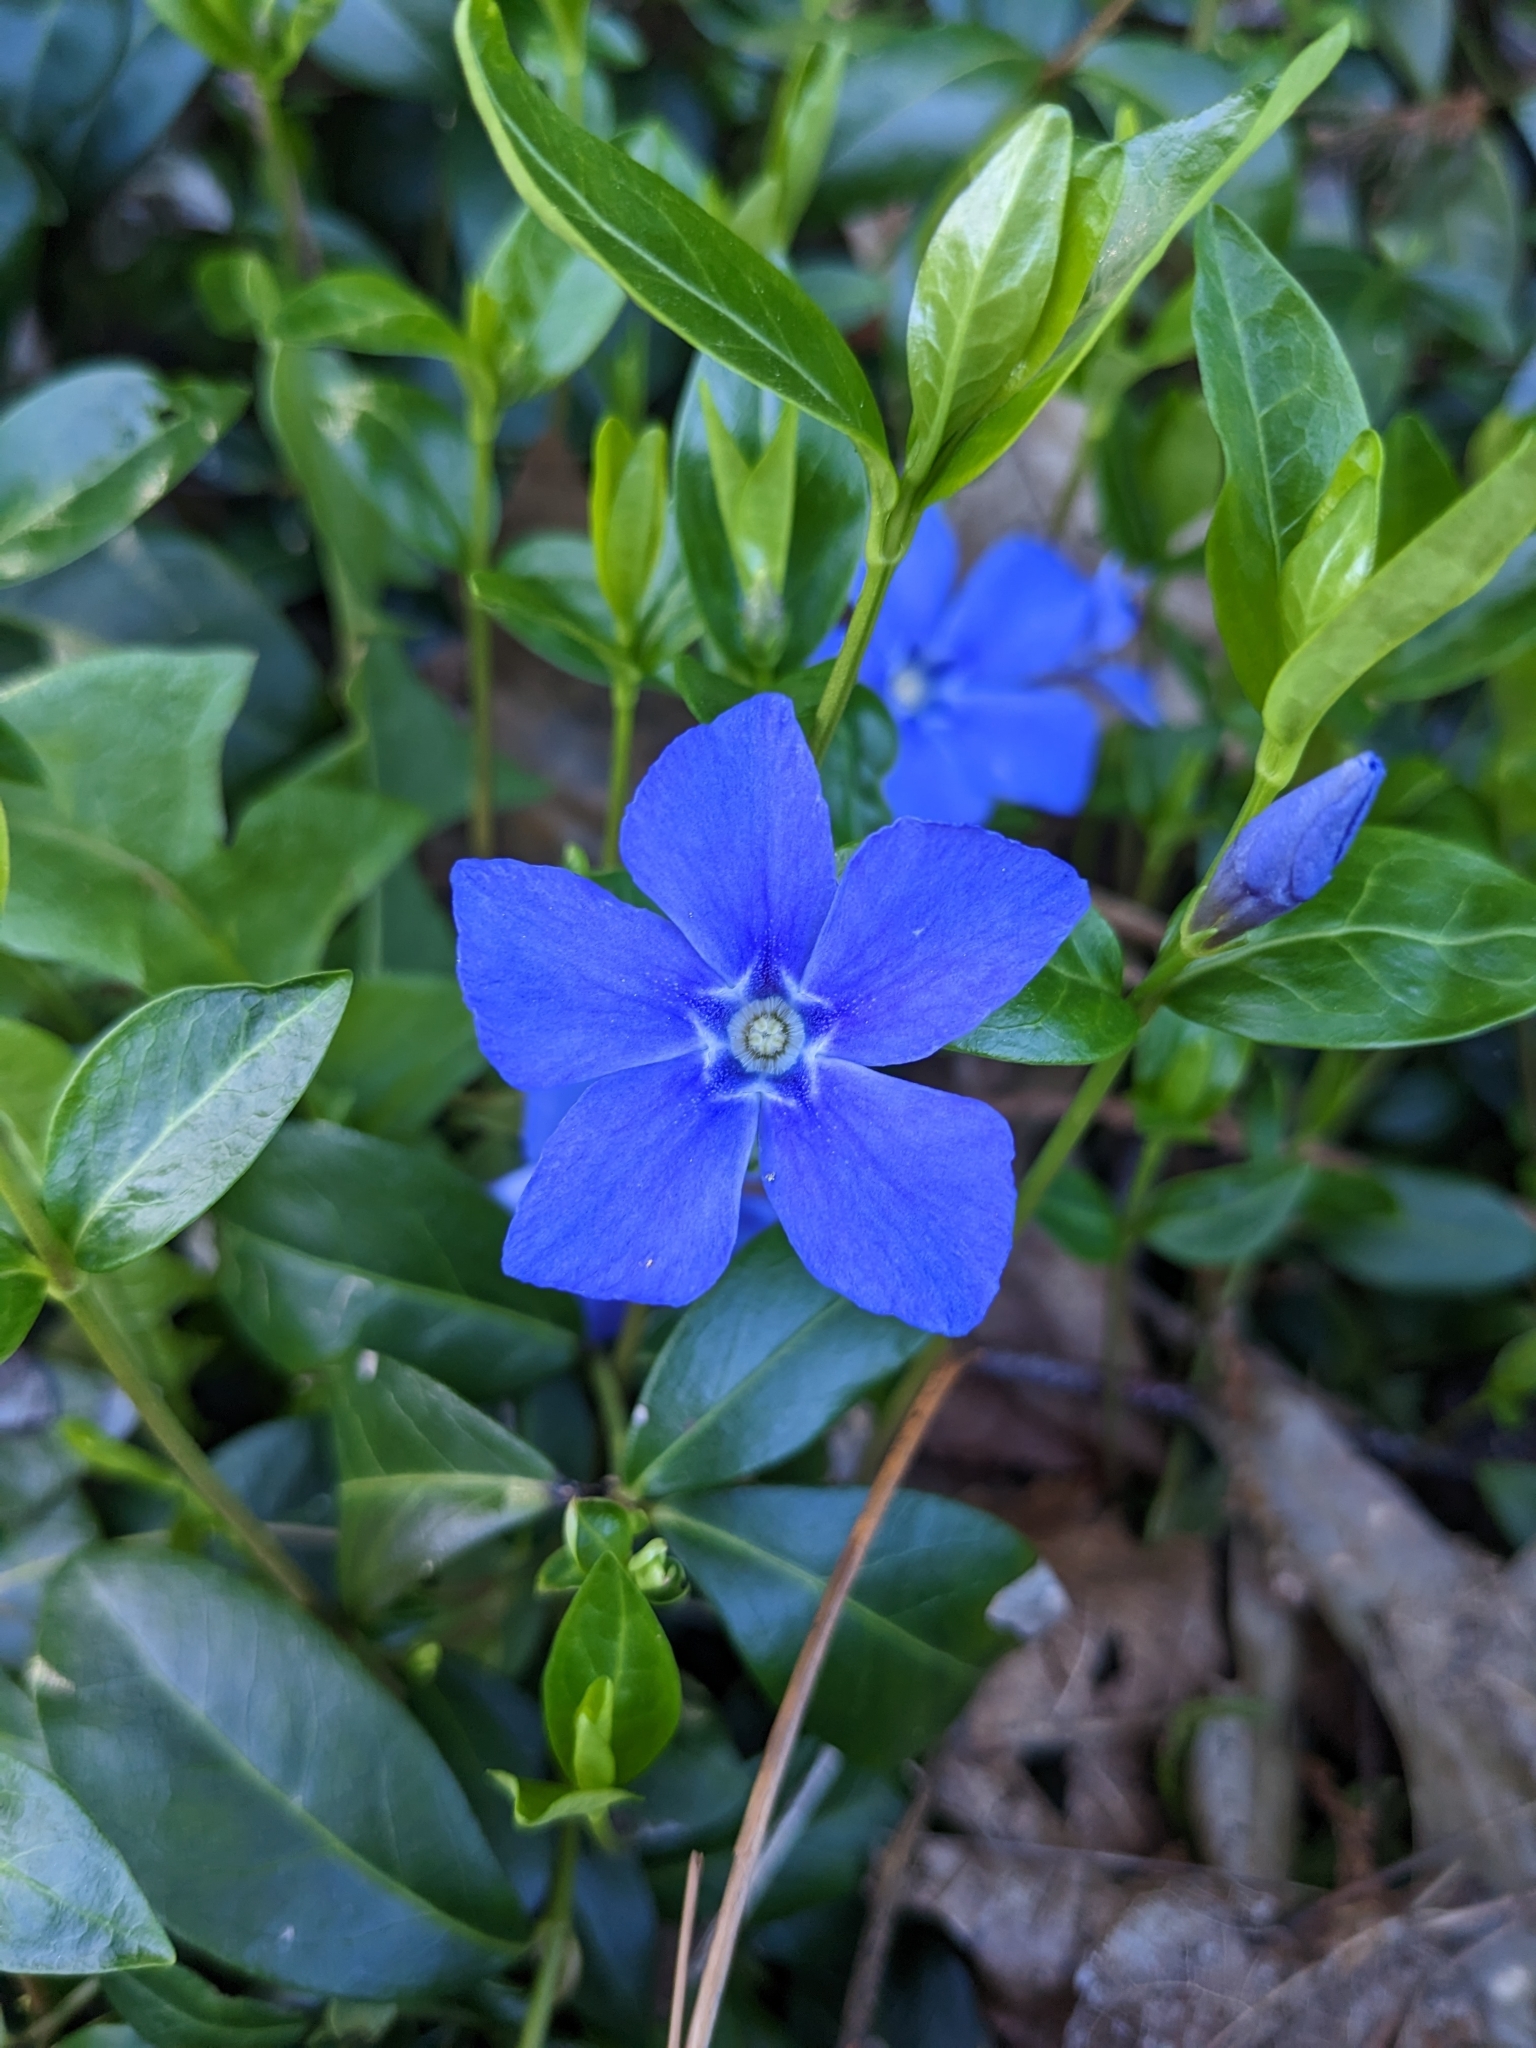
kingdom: Plantae
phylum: Tracheophyta
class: Magnoliopsida
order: Gentianales
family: Apocynaceae
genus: Vinca
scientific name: Vinca minor
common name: Lesser periwinkle
